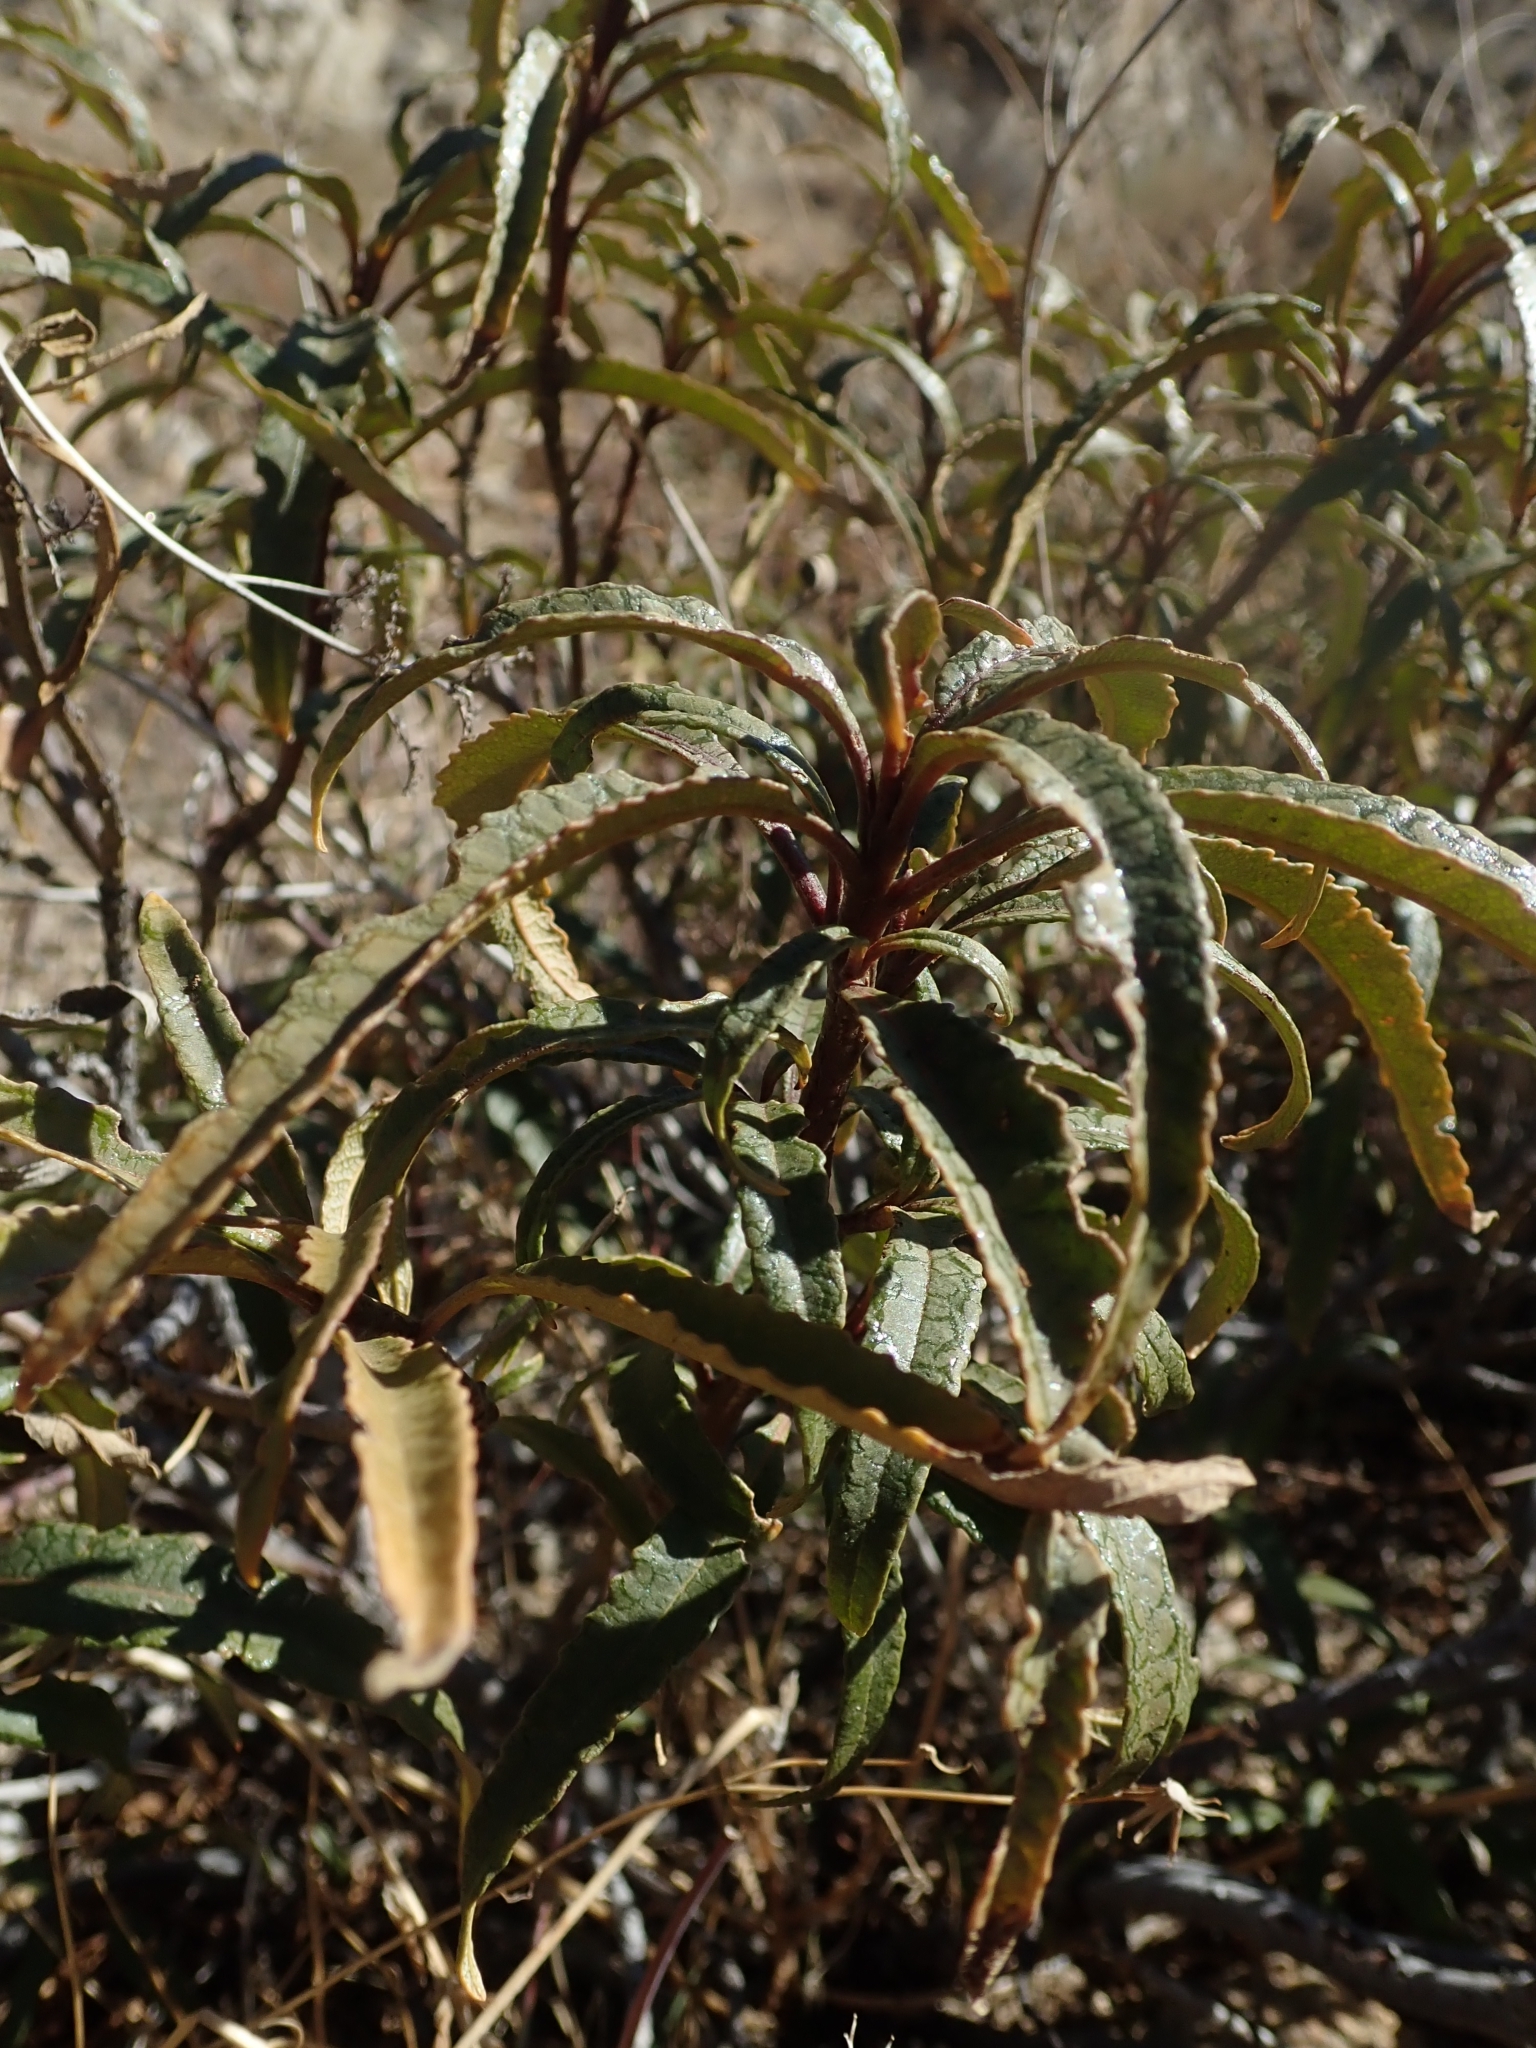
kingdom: Plantae
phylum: Tracheophyta
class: Magnoliopsida
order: Boraginales
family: Namaceae
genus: Eriodictyon
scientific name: Eriodictyon trichocalyx
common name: Hairy yerba-santa
